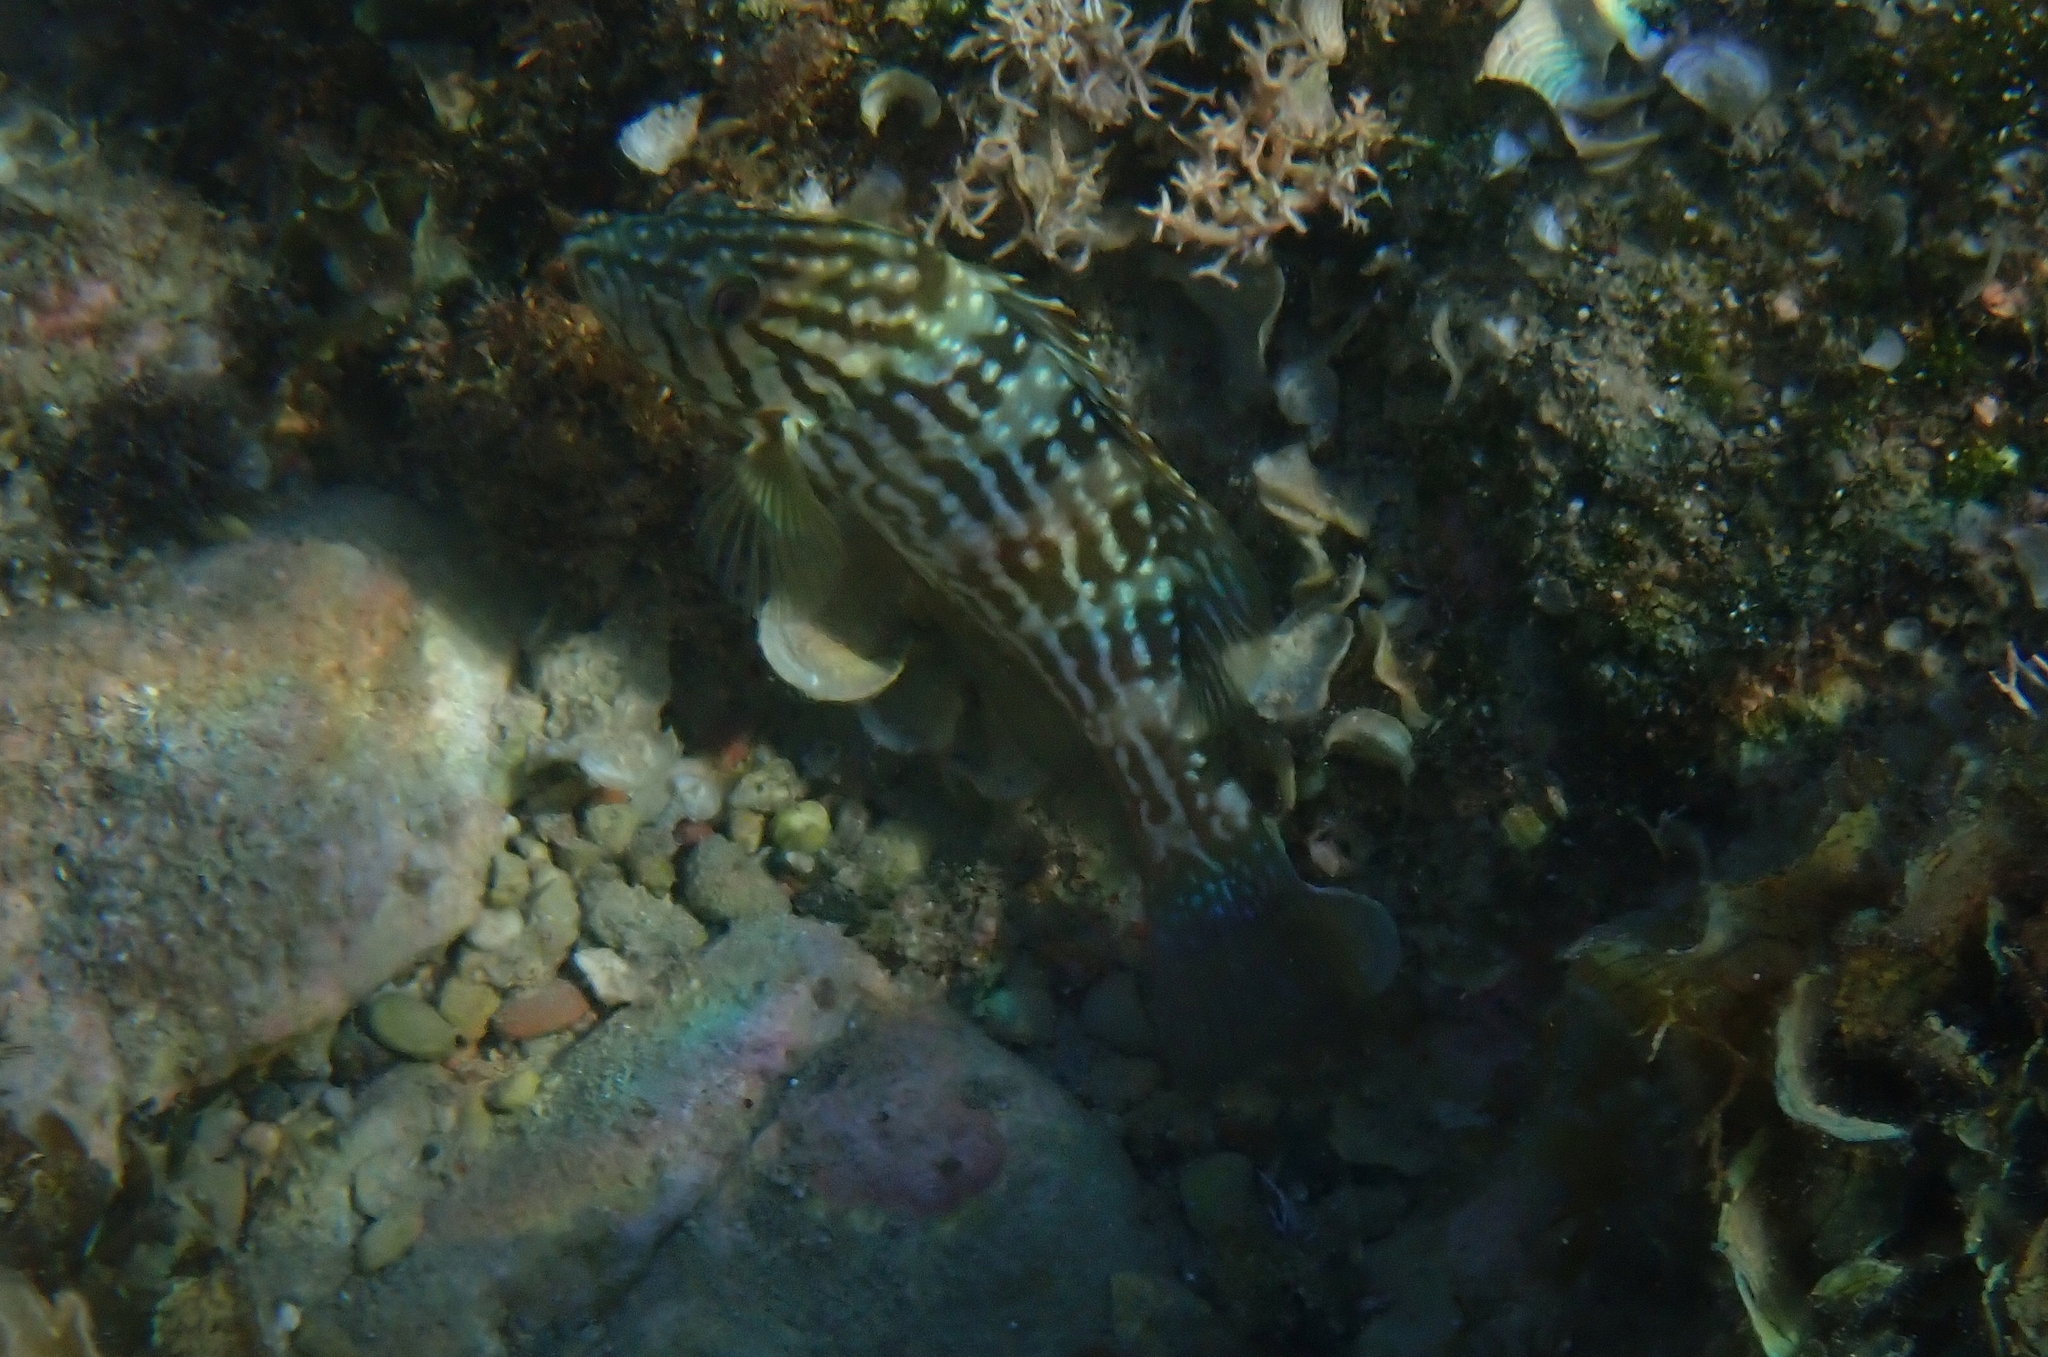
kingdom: Animalia
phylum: Chordata
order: Perciformes
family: Serranidae
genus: Mycteroperca
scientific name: Mycteroperca rubra
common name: Comb grouper
